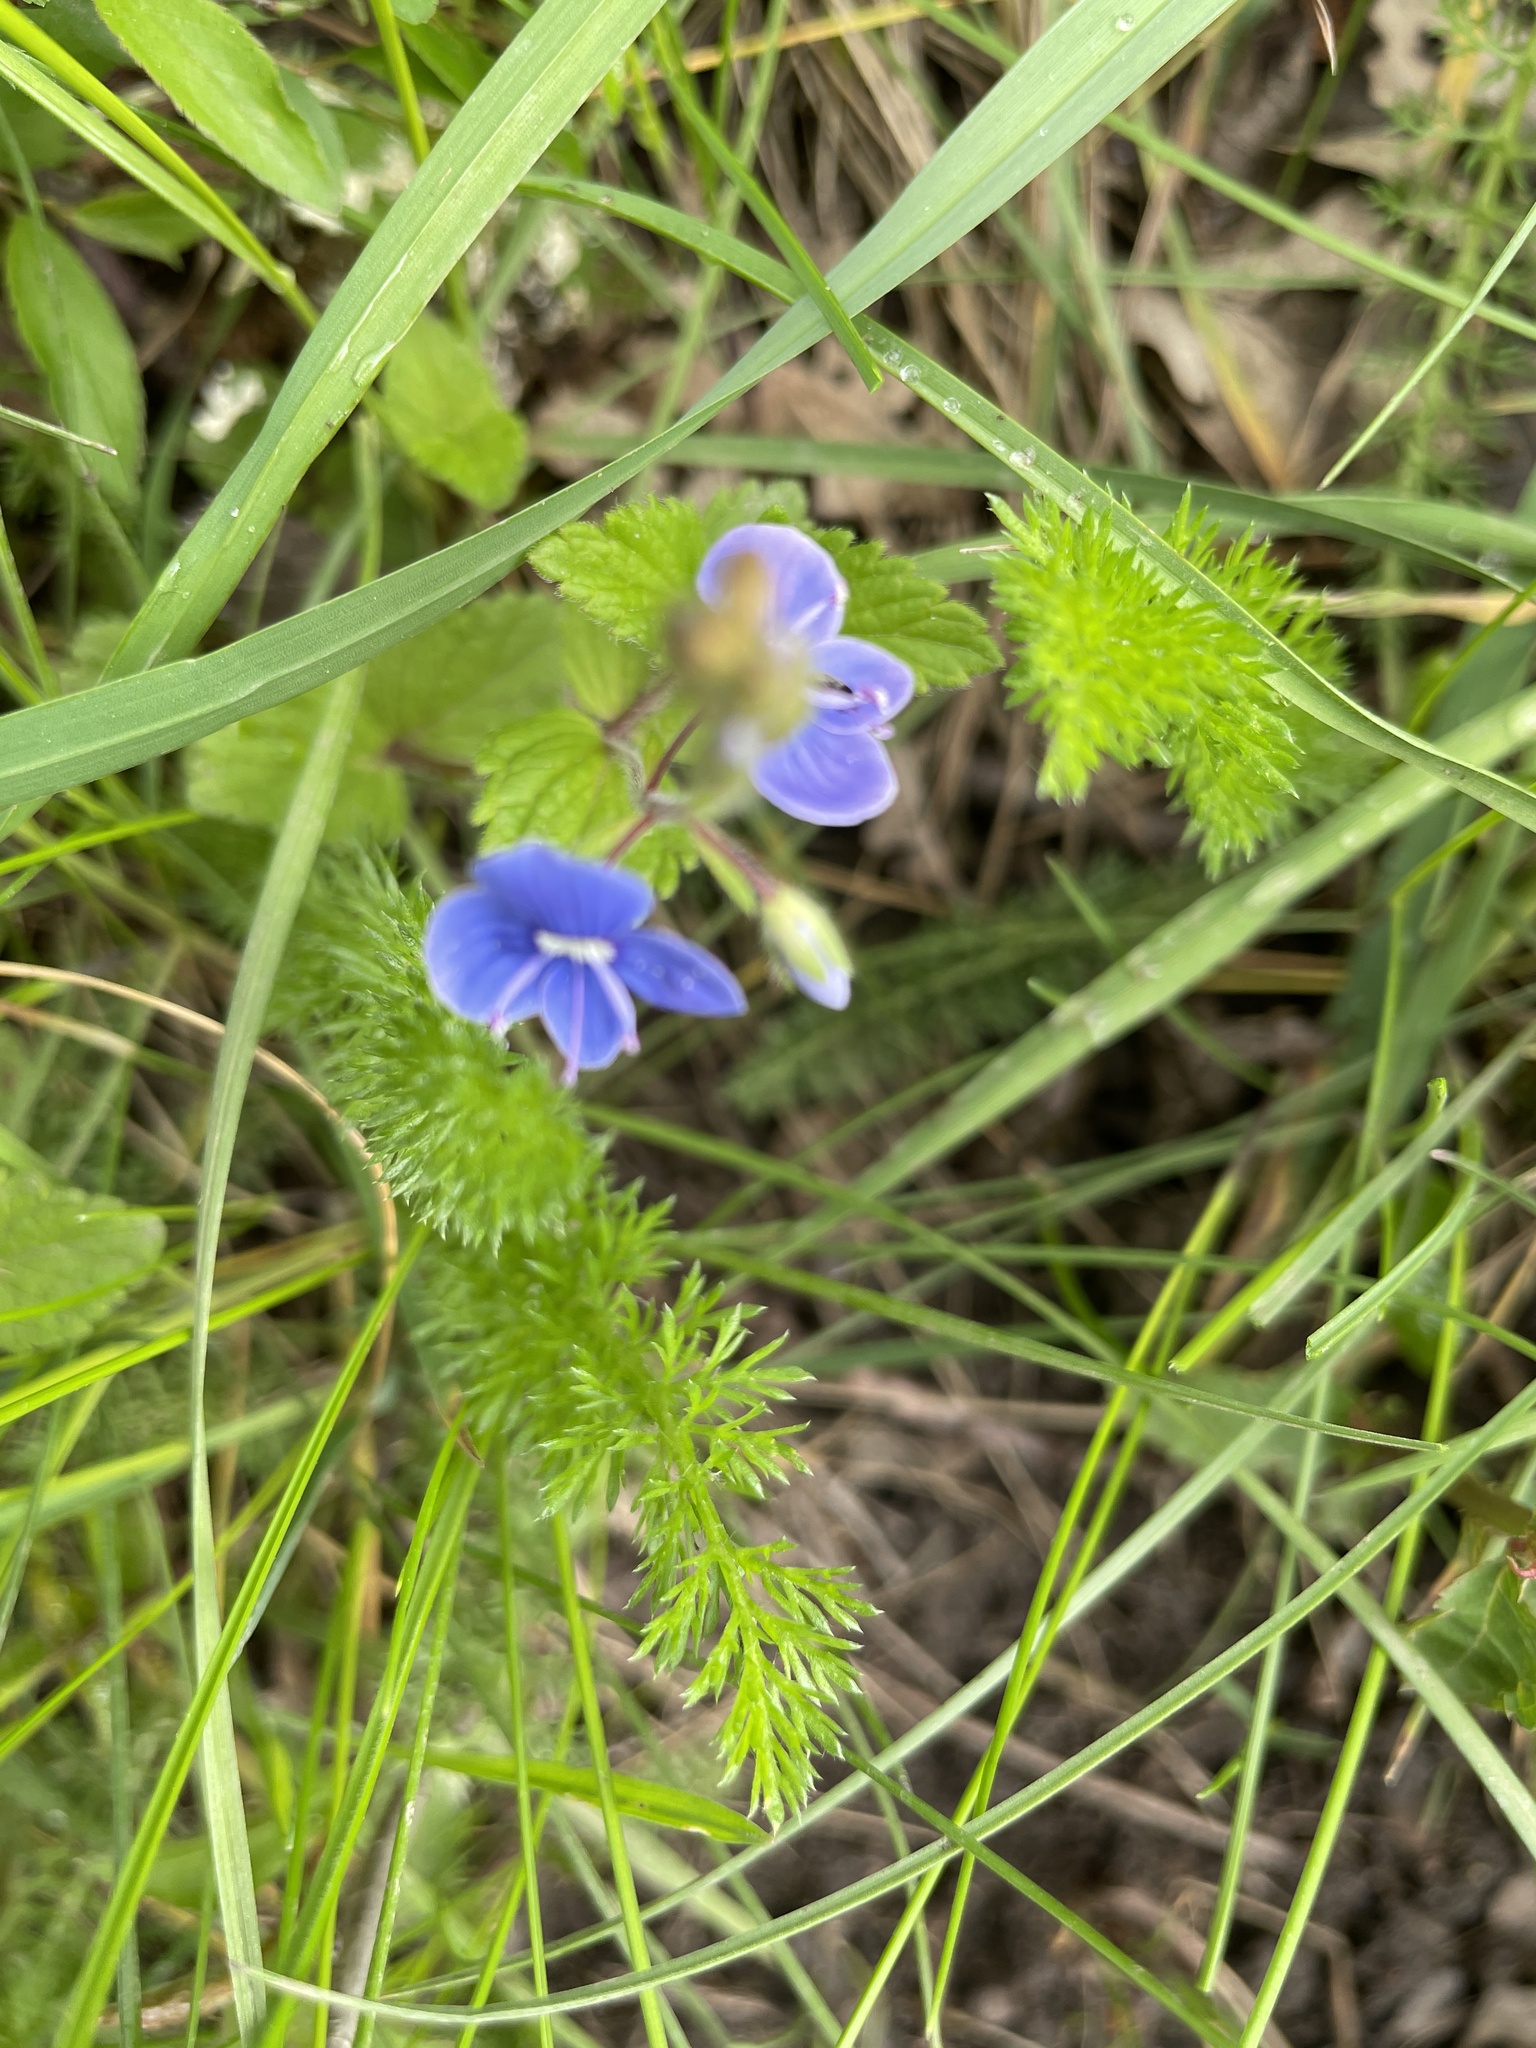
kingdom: Plantae
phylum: Tracheophyta
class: Magnoliopsida
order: Lamiales
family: Plantaginaceae
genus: Veronica
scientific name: Veronica chamaedrys
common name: Germander speedwell
